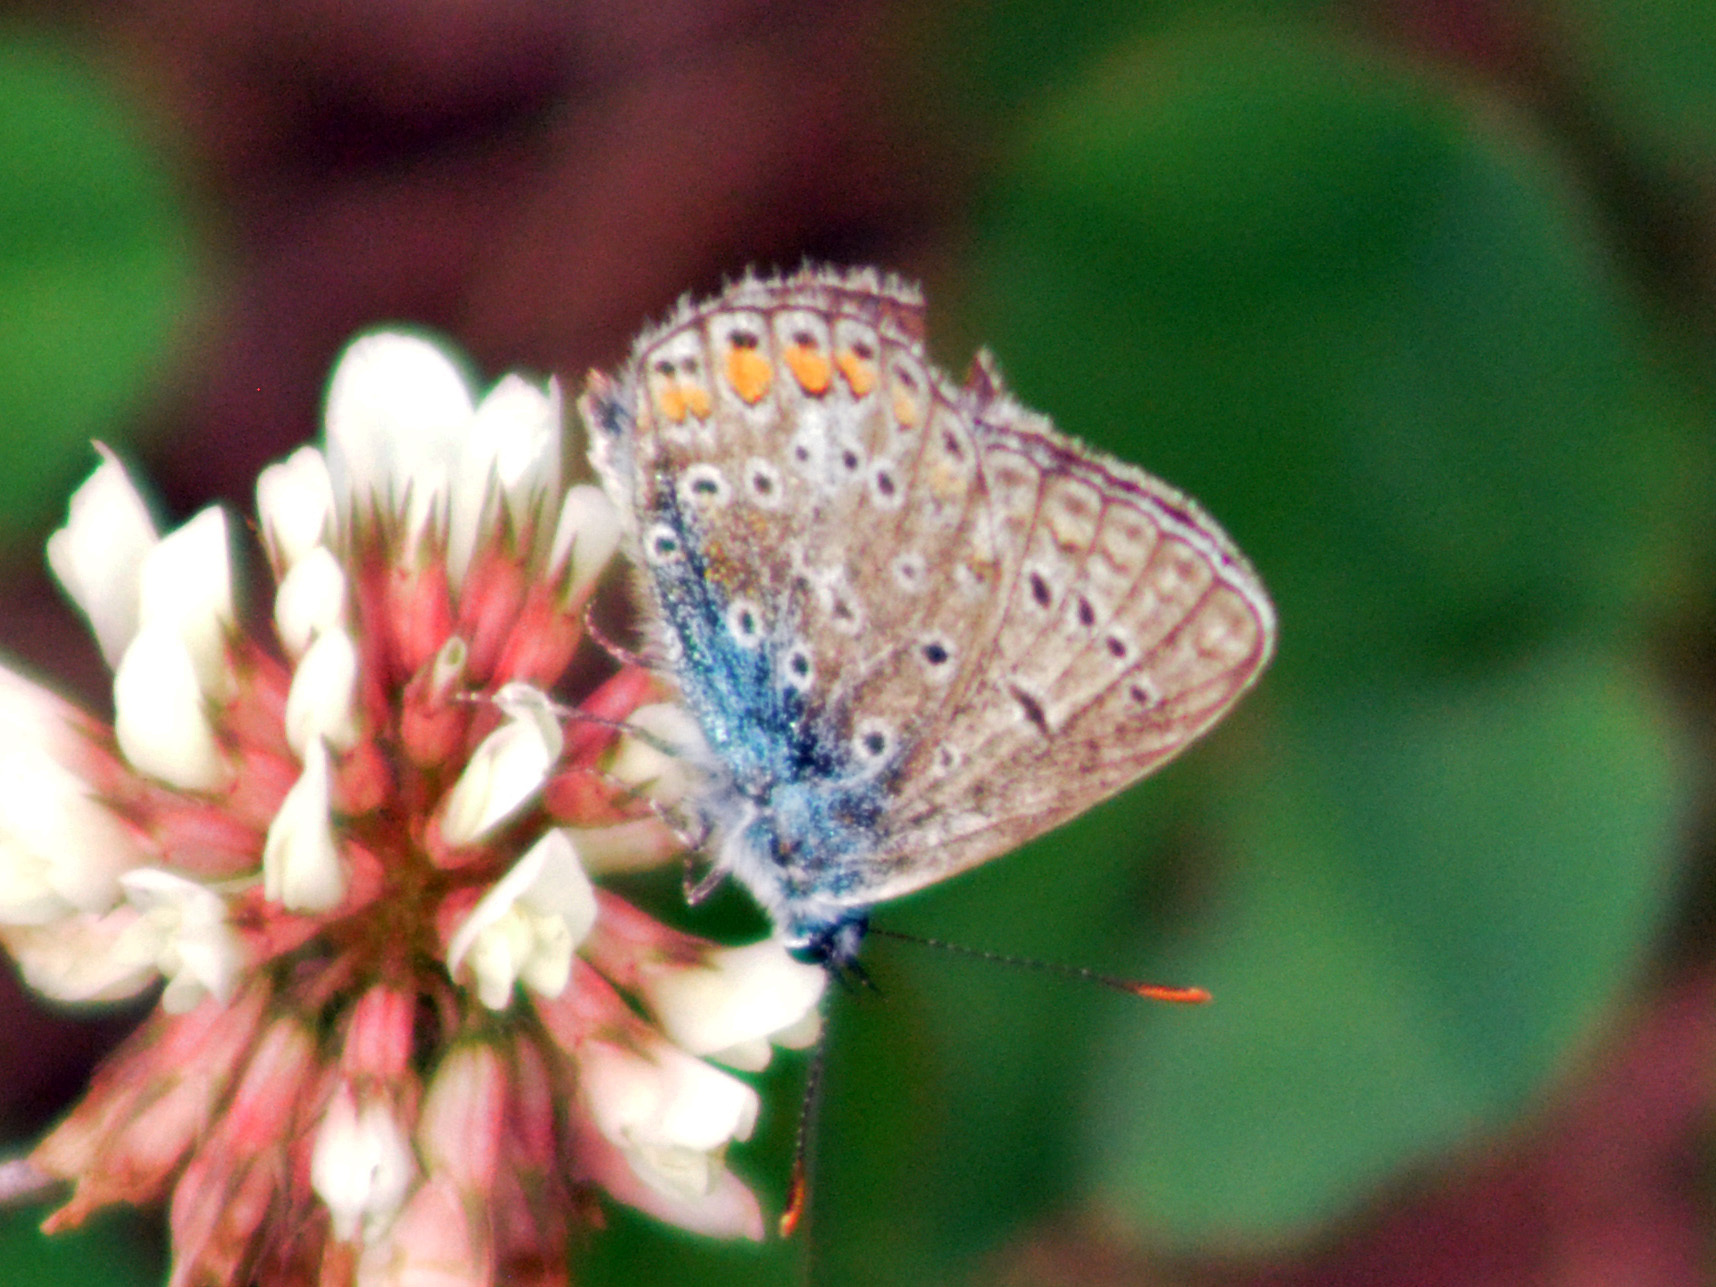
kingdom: Animalia
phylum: Arthropoda
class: Insecta
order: Lepidoptera
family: Lycaenidae
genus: Polyommatus
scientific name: Polyommatus icarus
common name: Common blue
